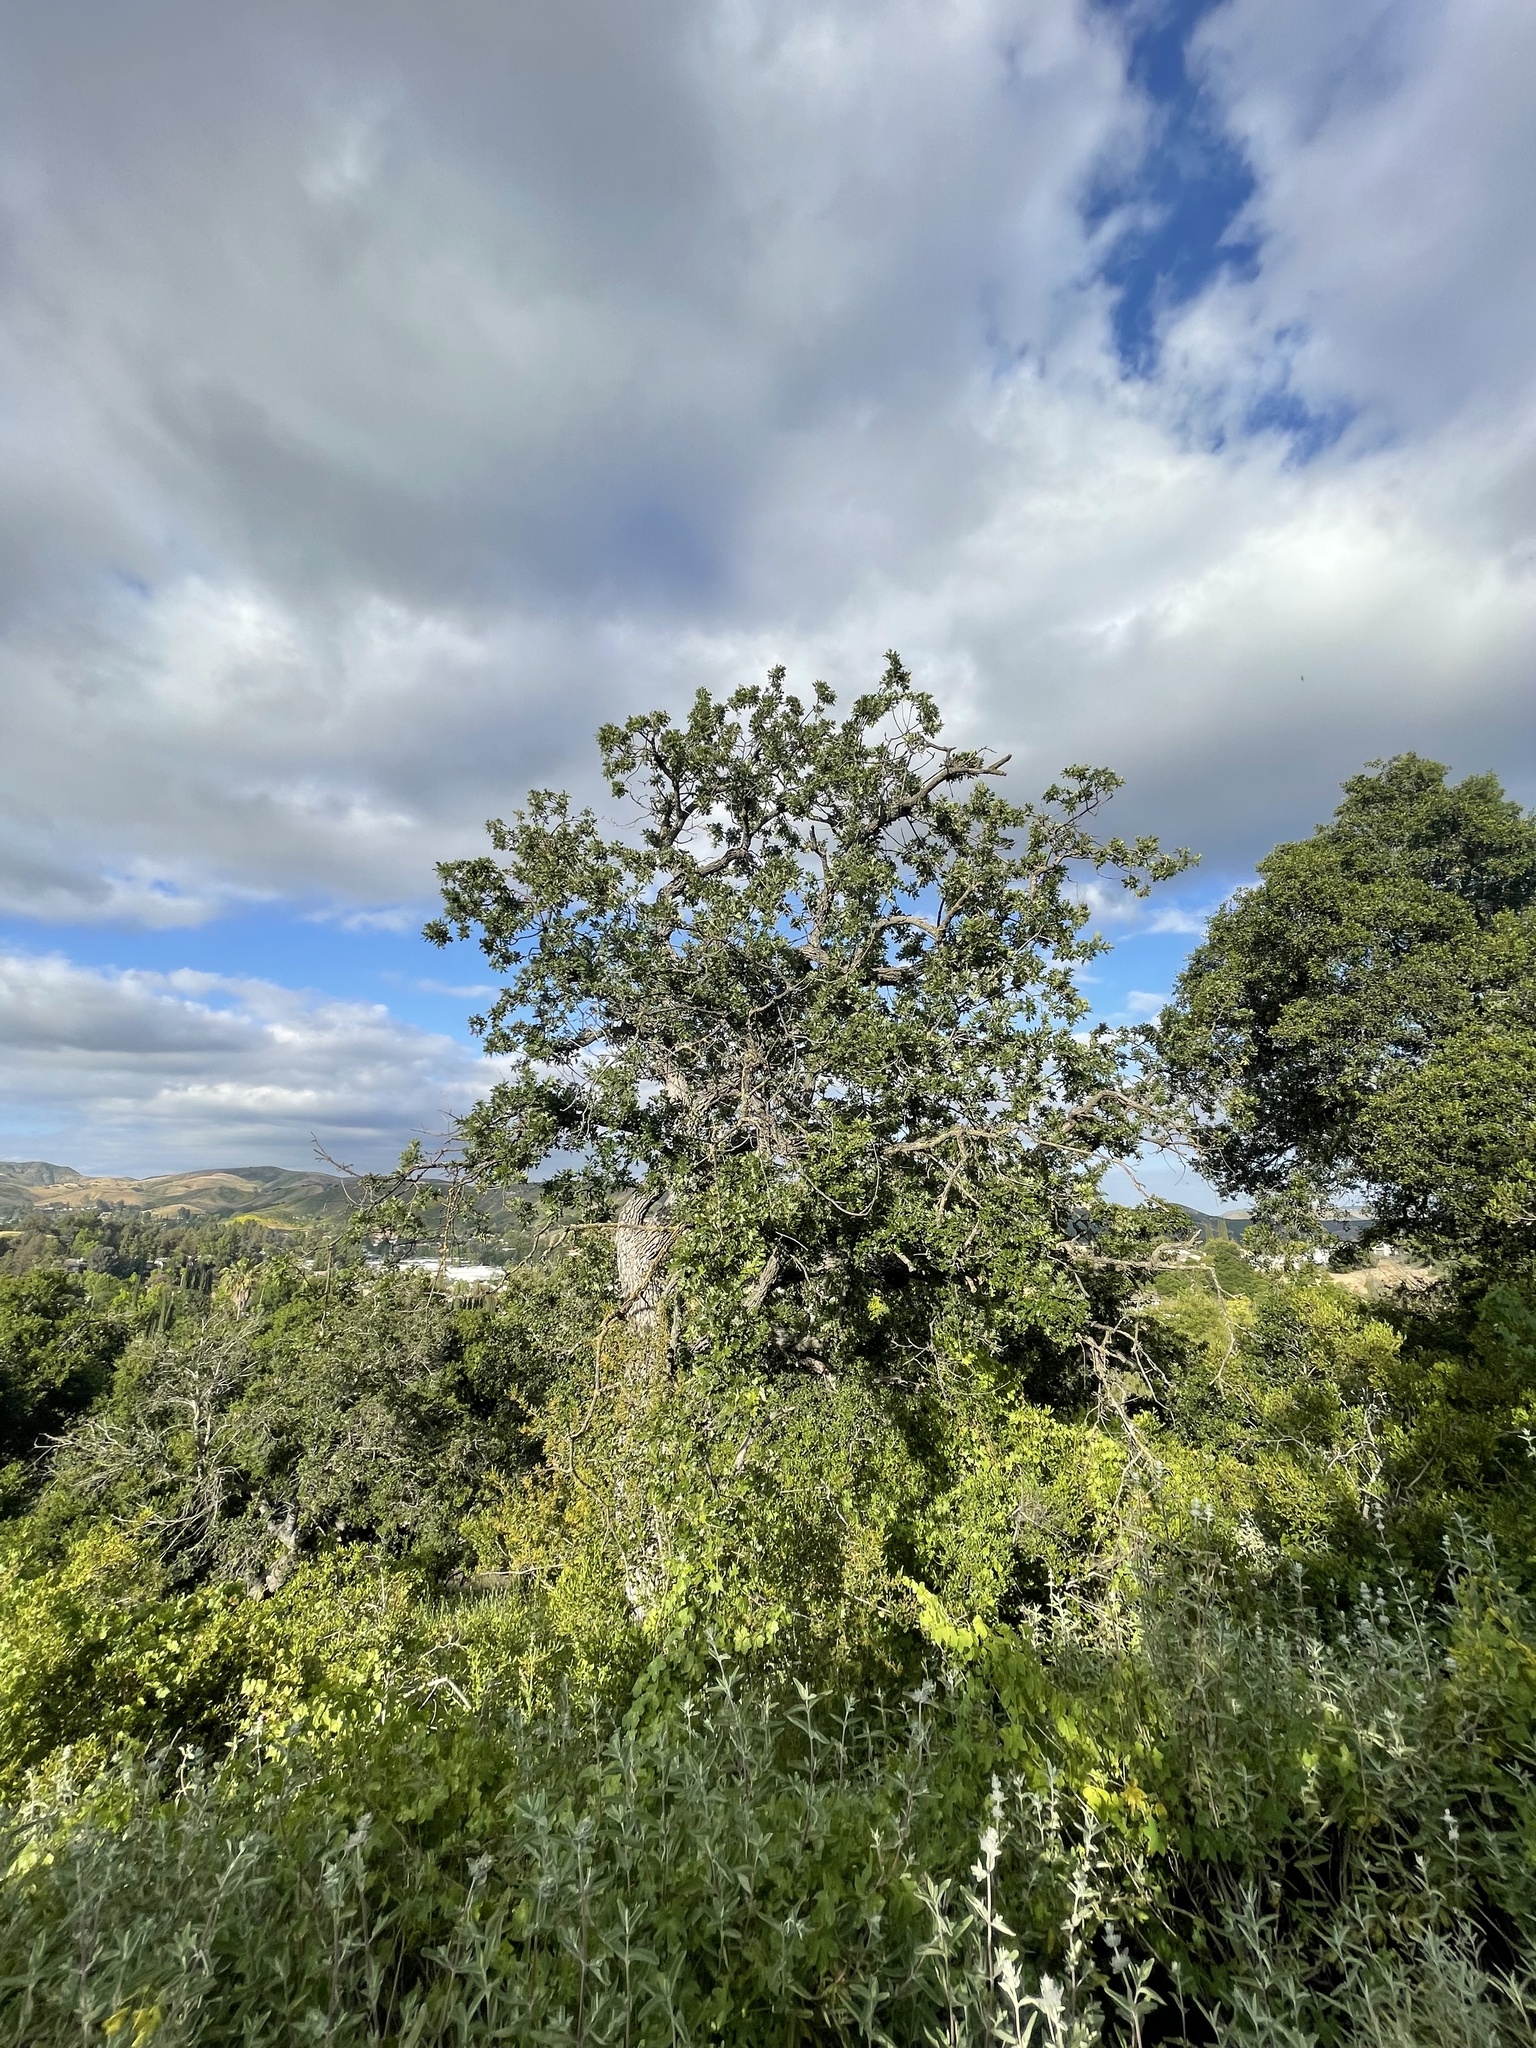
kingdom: Plantae
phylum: Tracheophyta
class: Magnoliopsida
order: Fagales
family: Fagaceae
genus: Quercus
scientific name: Quercus lobata
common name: Valley oak
